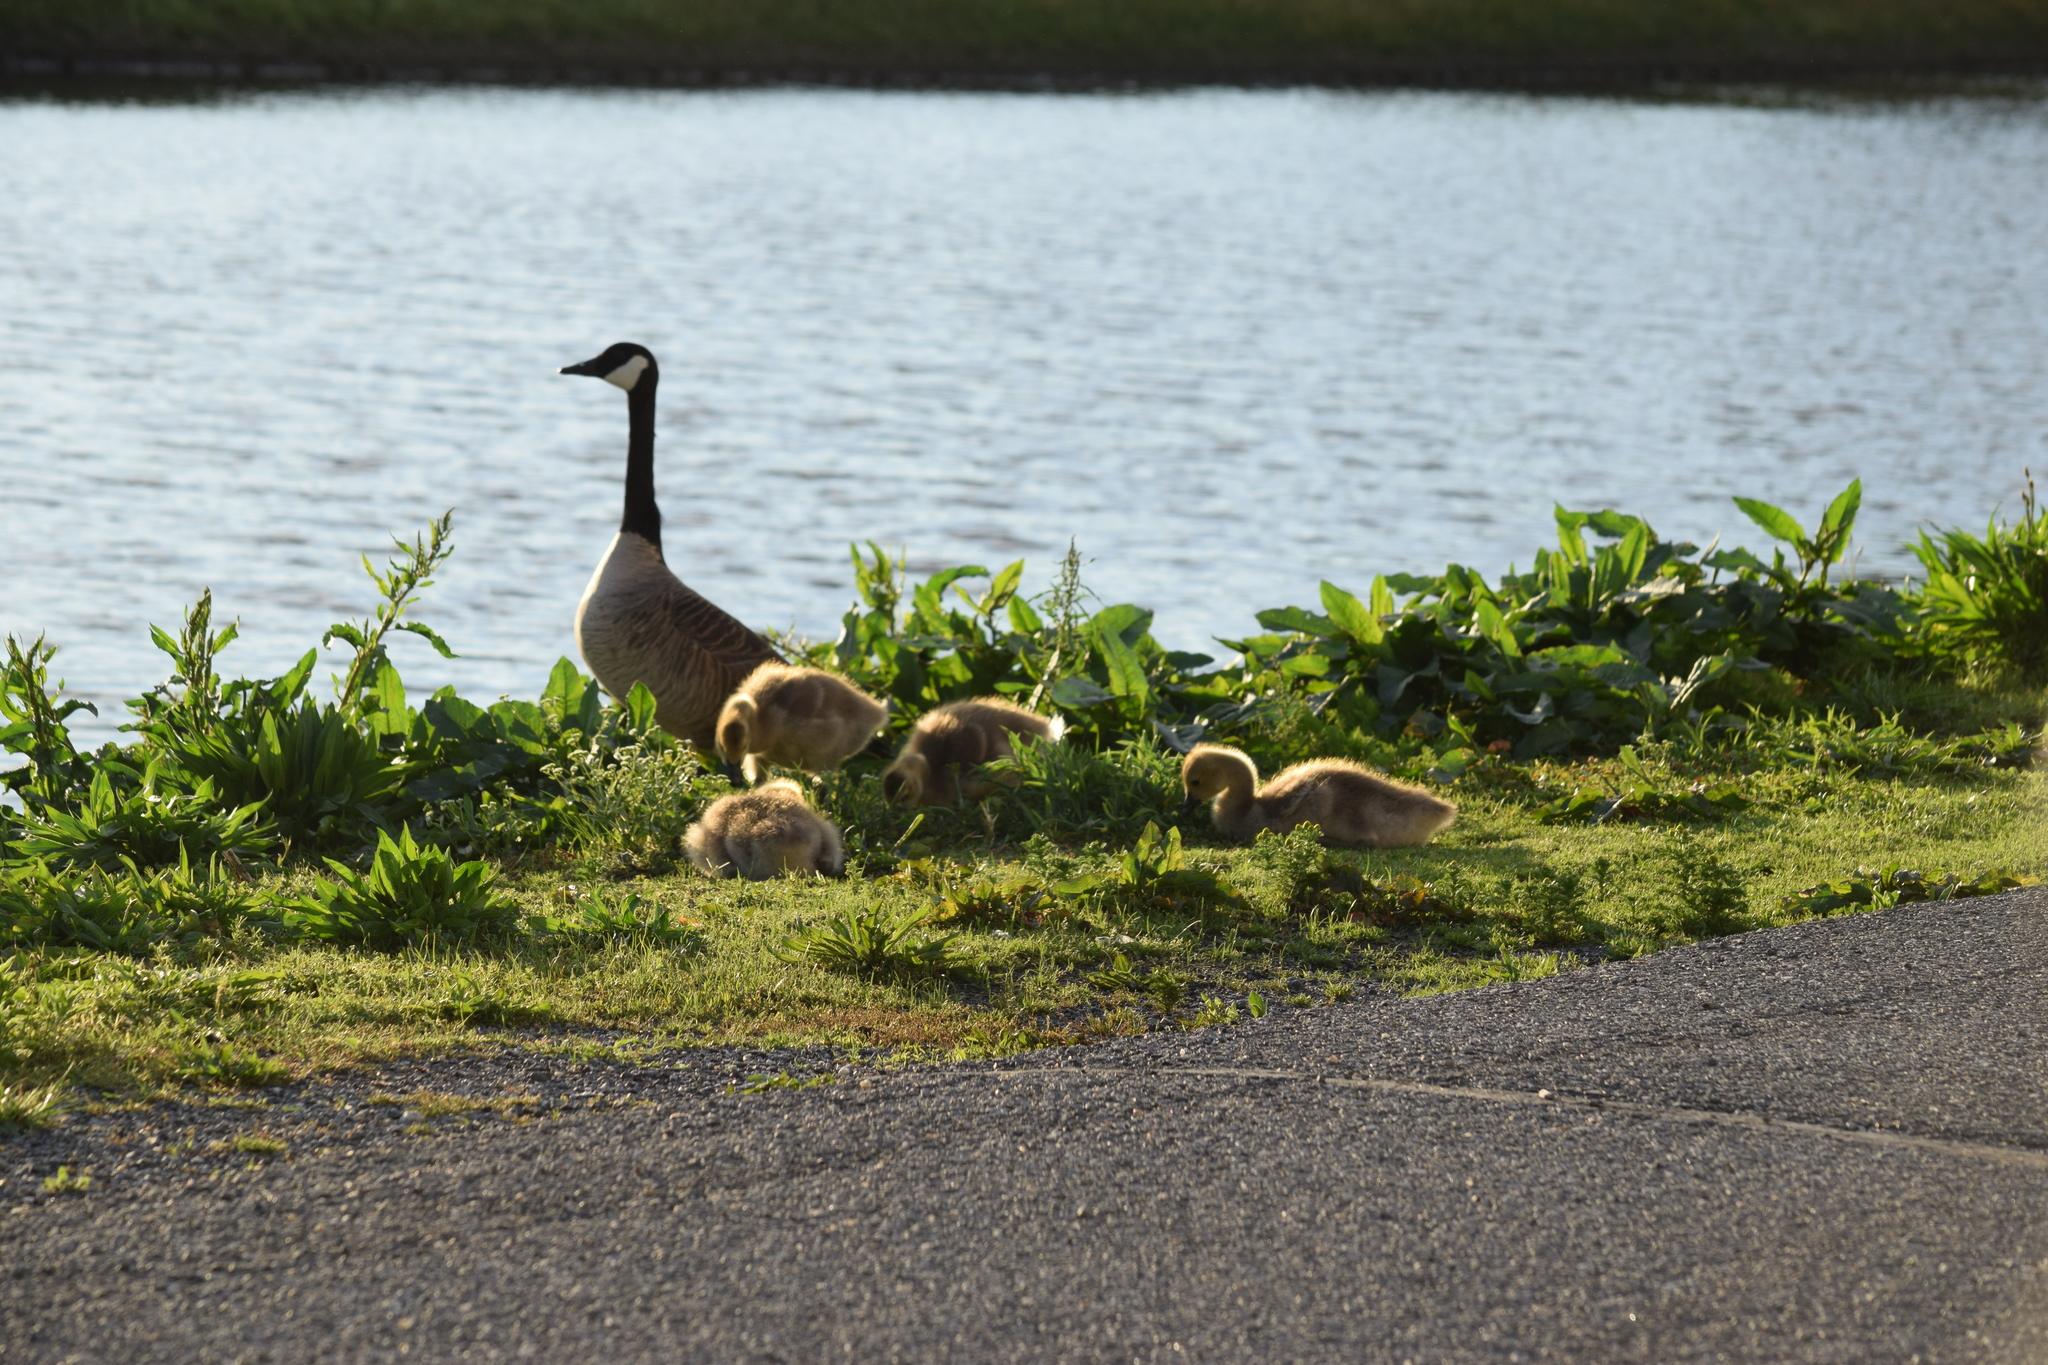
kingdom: Animalia
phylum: Chordata
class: Aves
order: Anseriformes
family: Anatidae
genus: Branta
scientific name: Branta canadensis
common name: Canada goose
